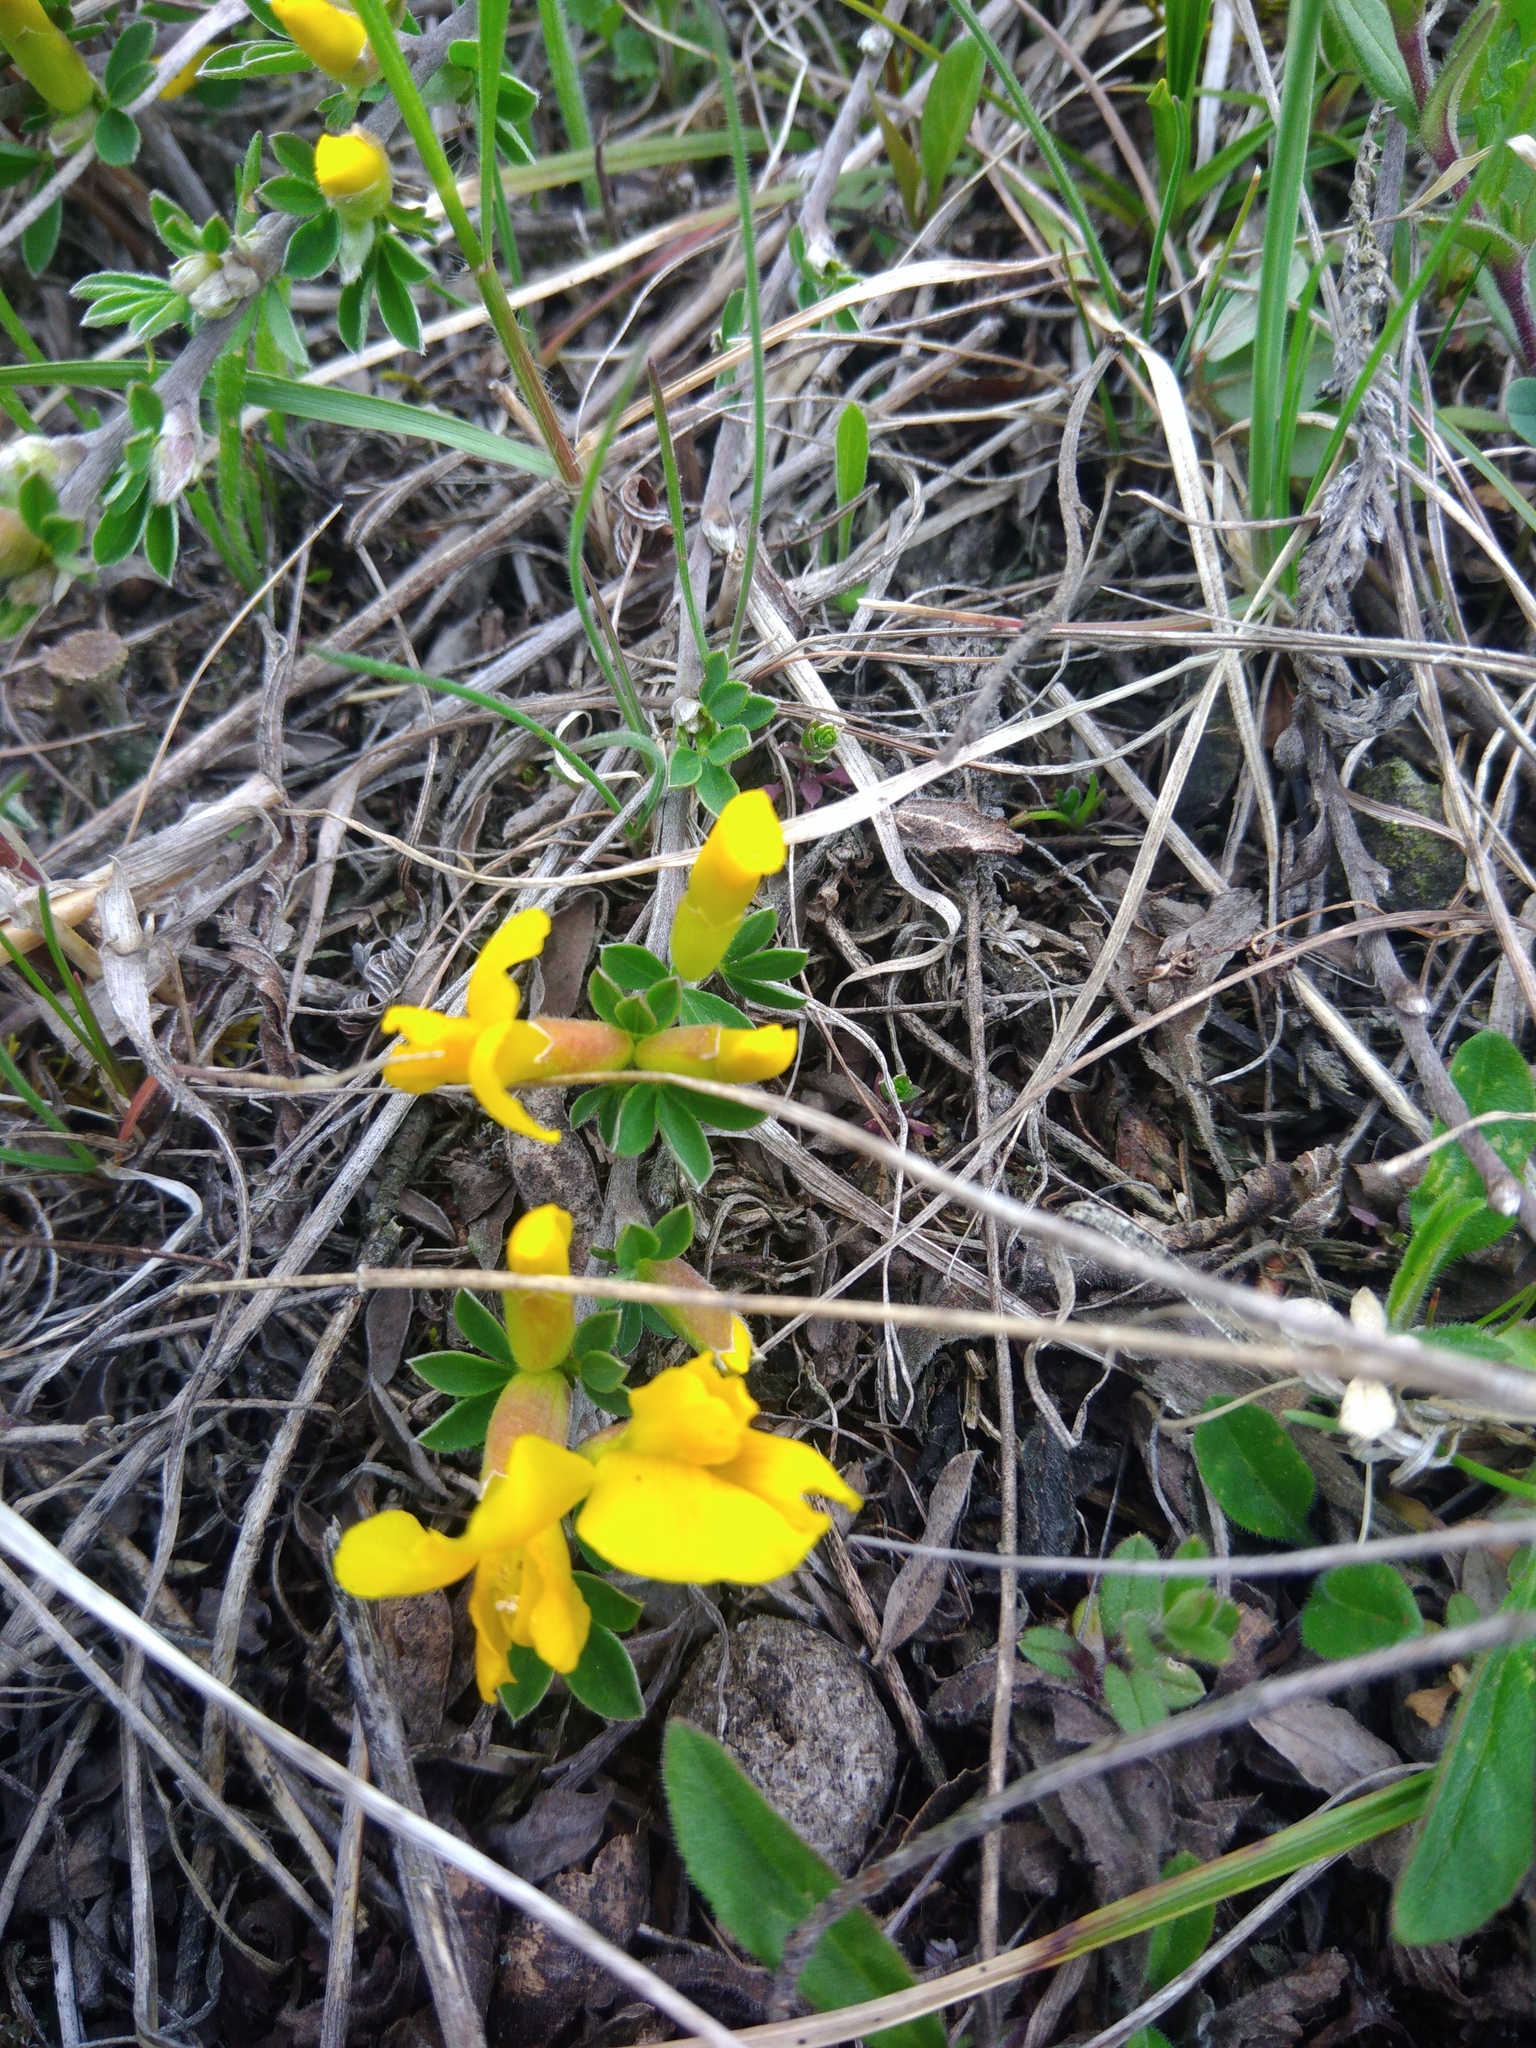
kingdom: Plantae
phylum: Tracheophyta
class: Magnoliopsida
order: Fabales
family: Fabaceae
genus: Chamaecytisus
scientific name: Chamaecytisus ruthenicus
